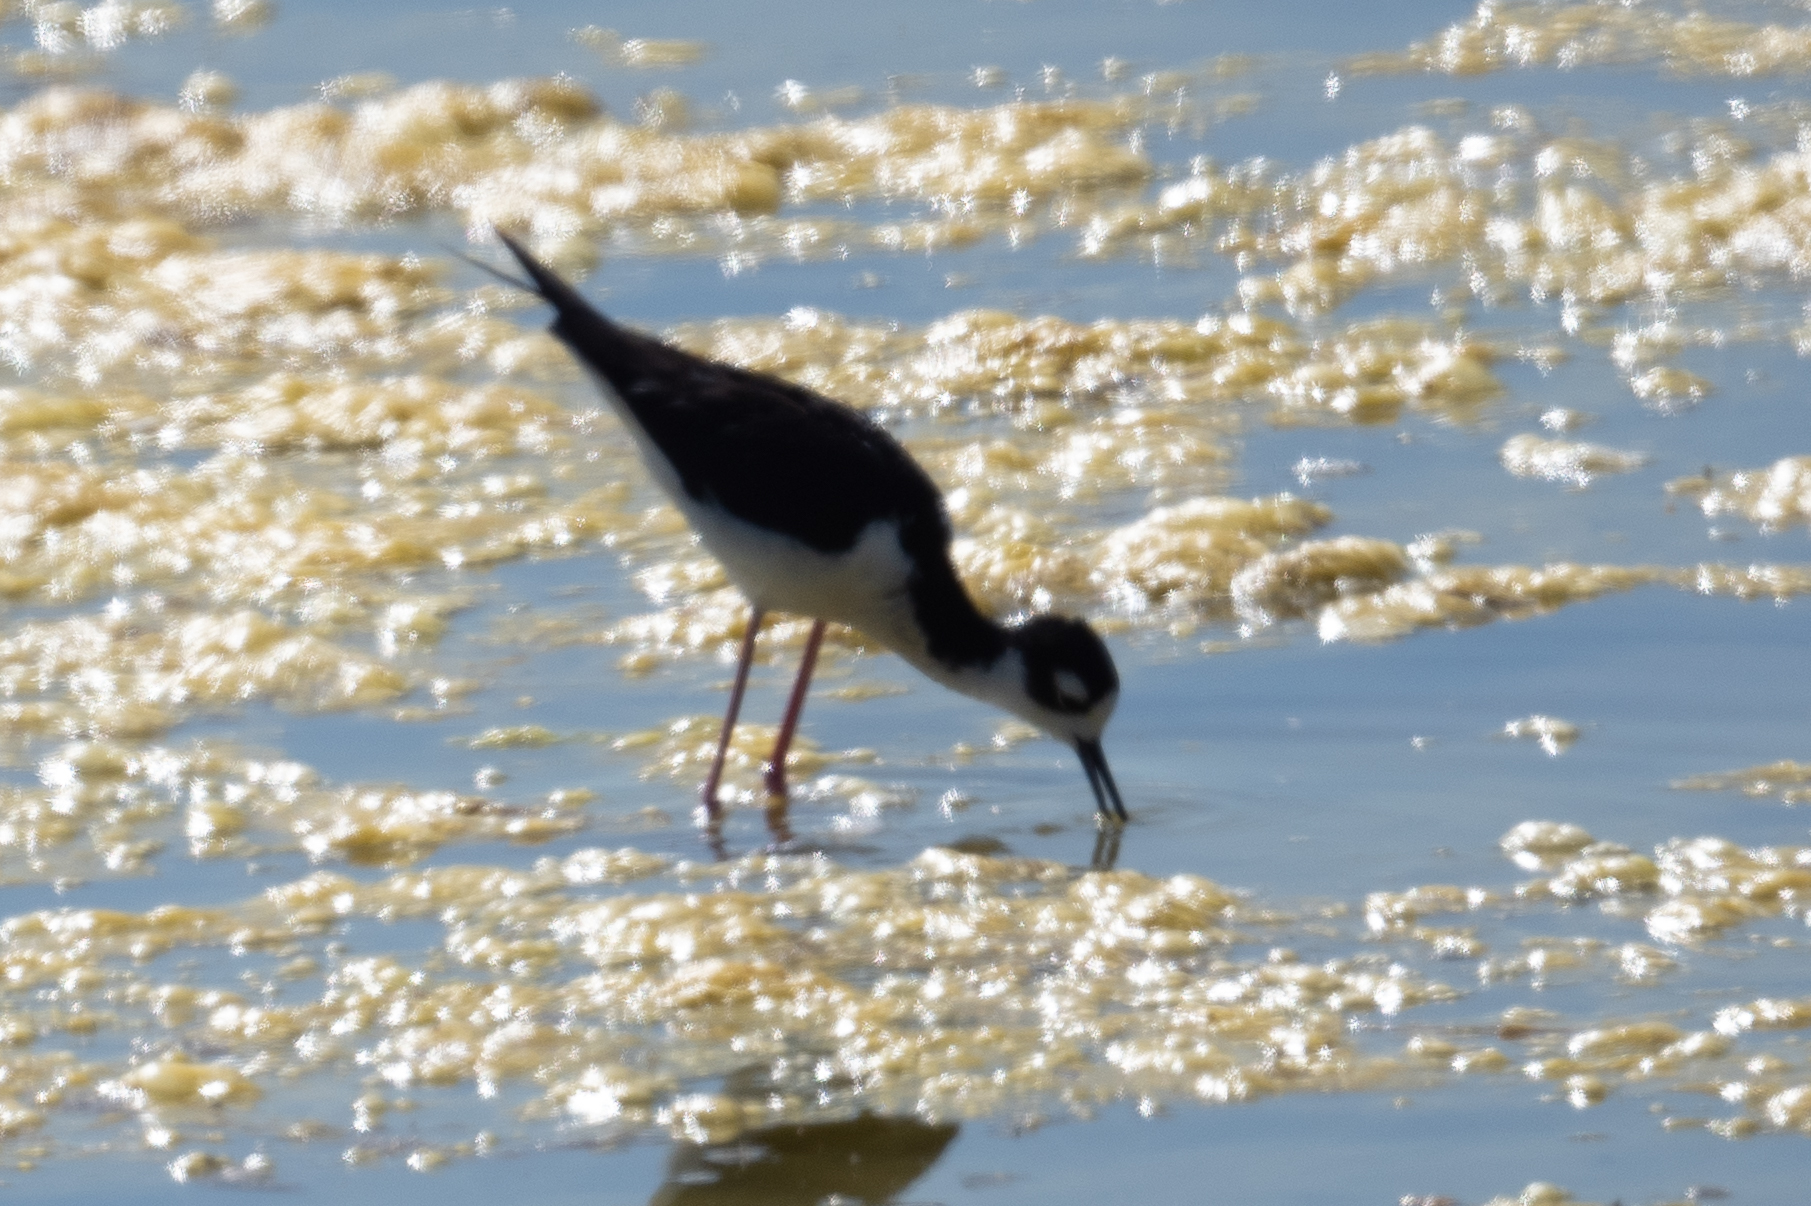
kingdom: Animalia
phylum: Chordata
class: Aves
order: Charadriiformes
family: Recurvirostridae
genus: Himantopus
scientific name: Himantopus mexicanus
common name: Black-necked stilt
